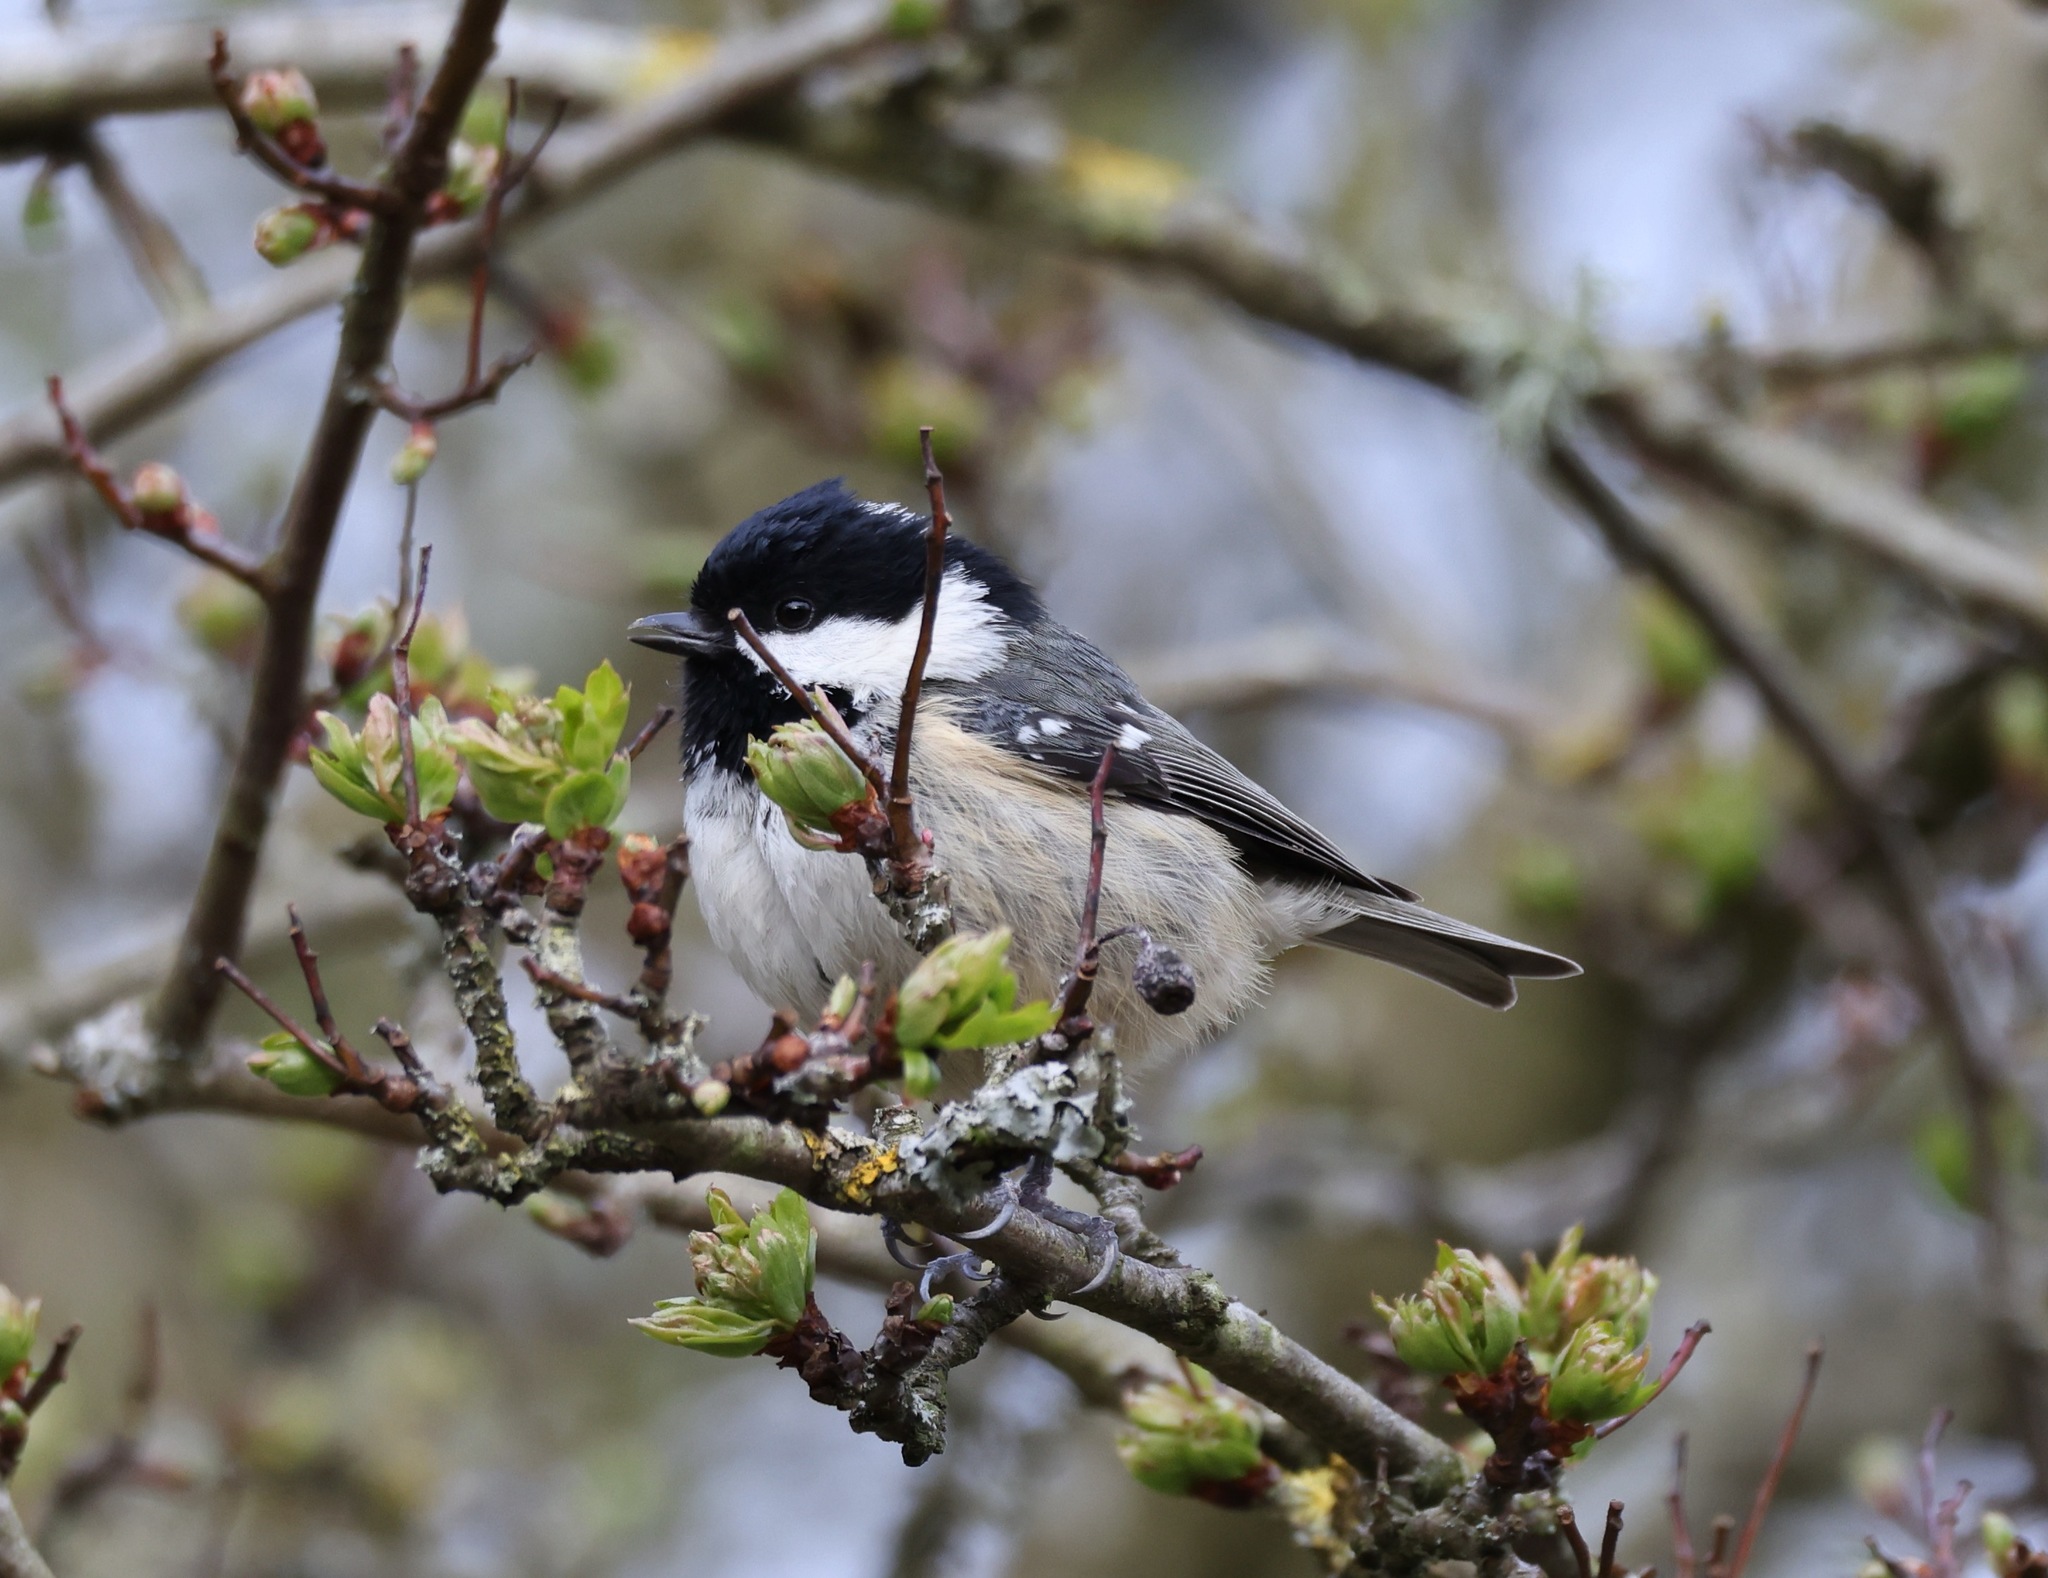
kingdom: Animalia
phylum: Chordata
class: Aves
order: Passeriformes
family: Paridae
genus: Periparus
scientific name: Periparus ater
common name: Coal tit
